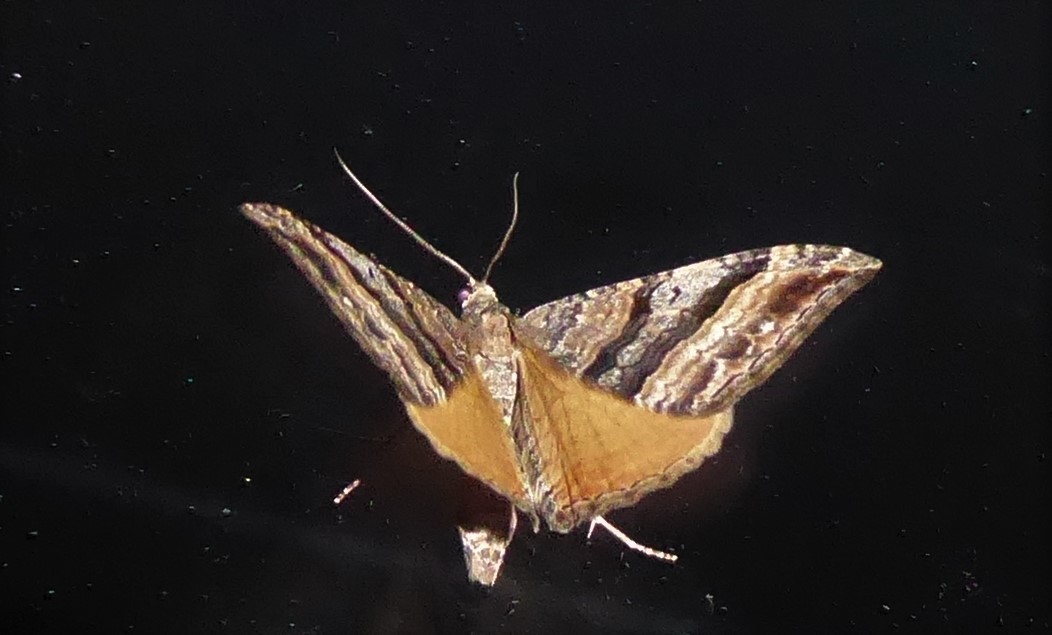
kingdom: Animalia
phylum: Arthropoda
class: Insecta
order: Lepidoptera
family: Geometridae
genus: Hydriomena
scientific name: Hydriomena deltoidata
